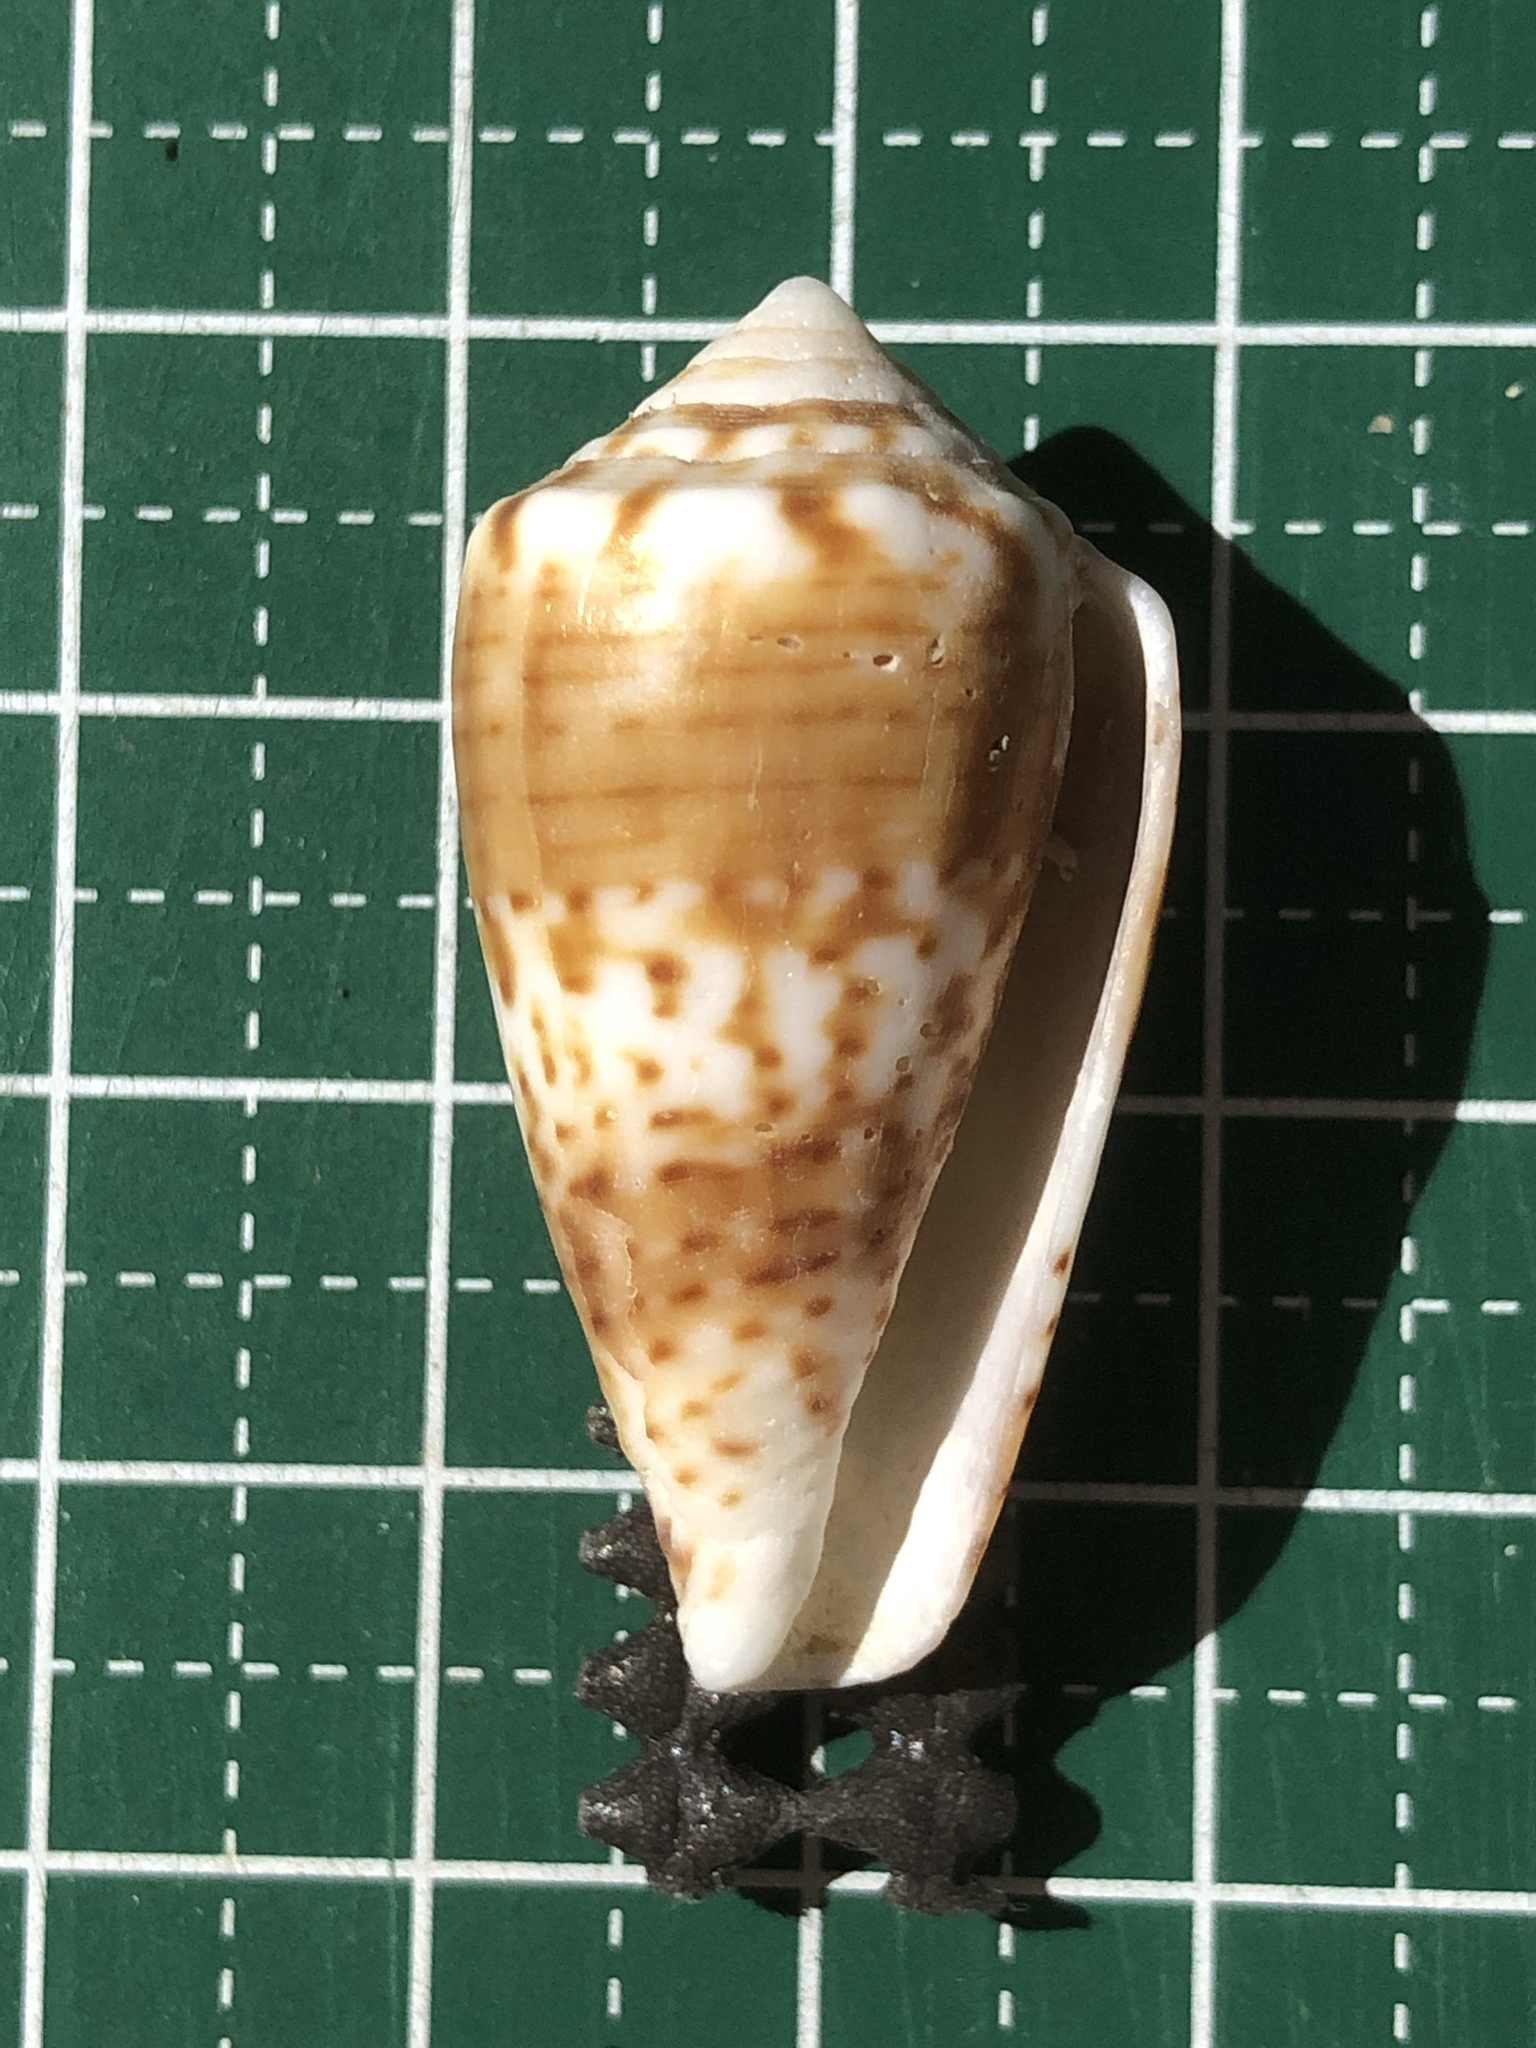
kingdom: Animalia
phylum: Mollusca
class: Gastropoda
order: Neogastropoda
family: Conidae
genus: Conus
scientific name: Conus boeticus
